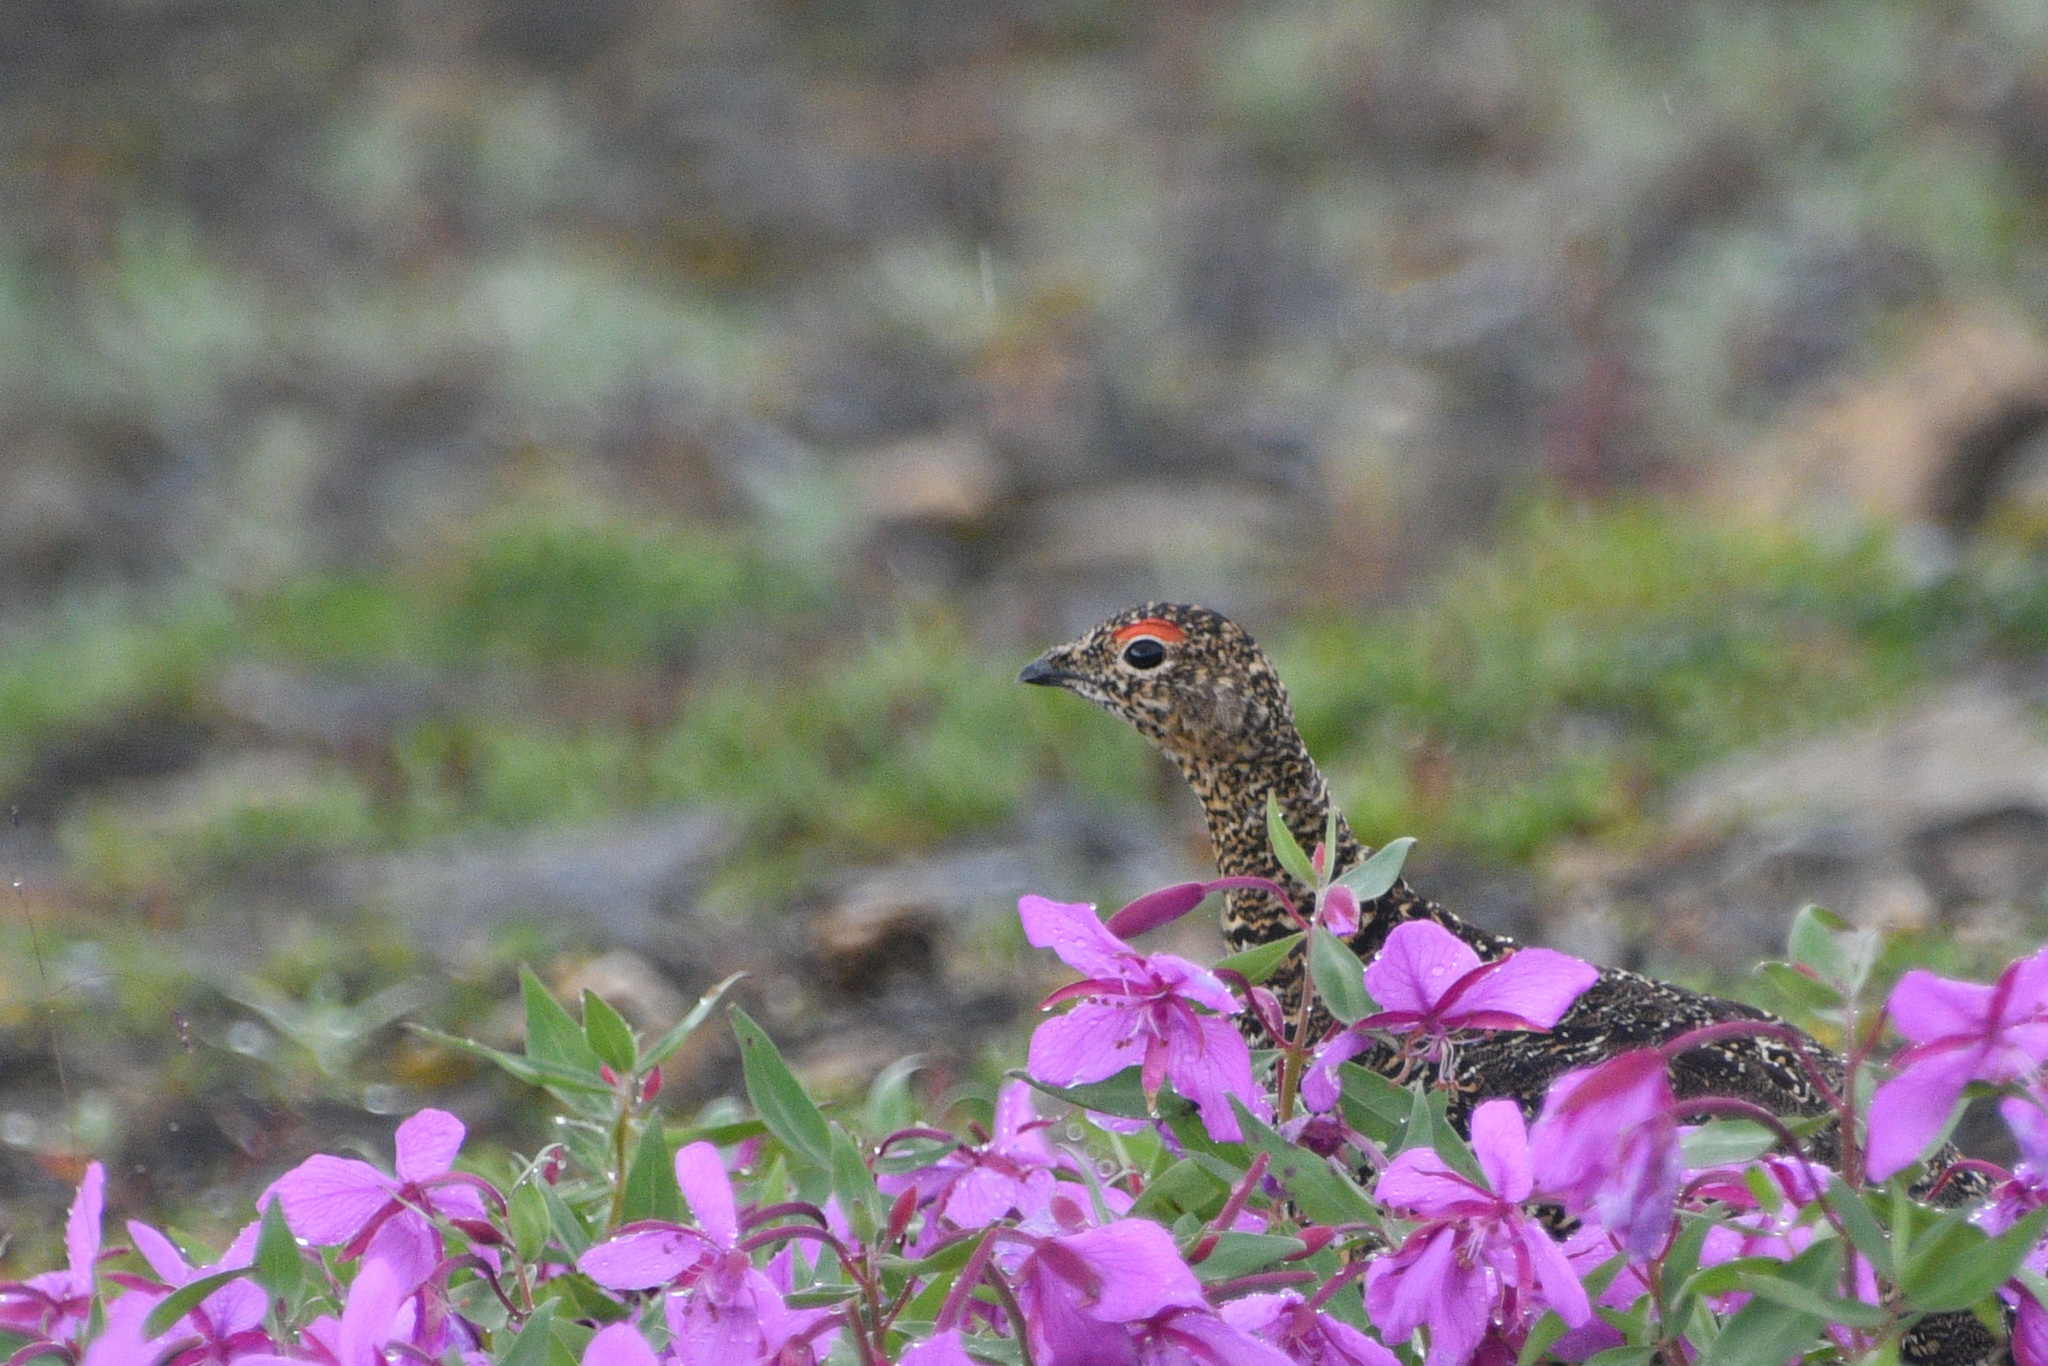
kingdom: Animalia
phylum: Chordata
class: Aves
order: Galliformes
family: Phasianidae
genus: Lagopus
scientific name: Lagopus muta
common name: Rock ptarmigan
